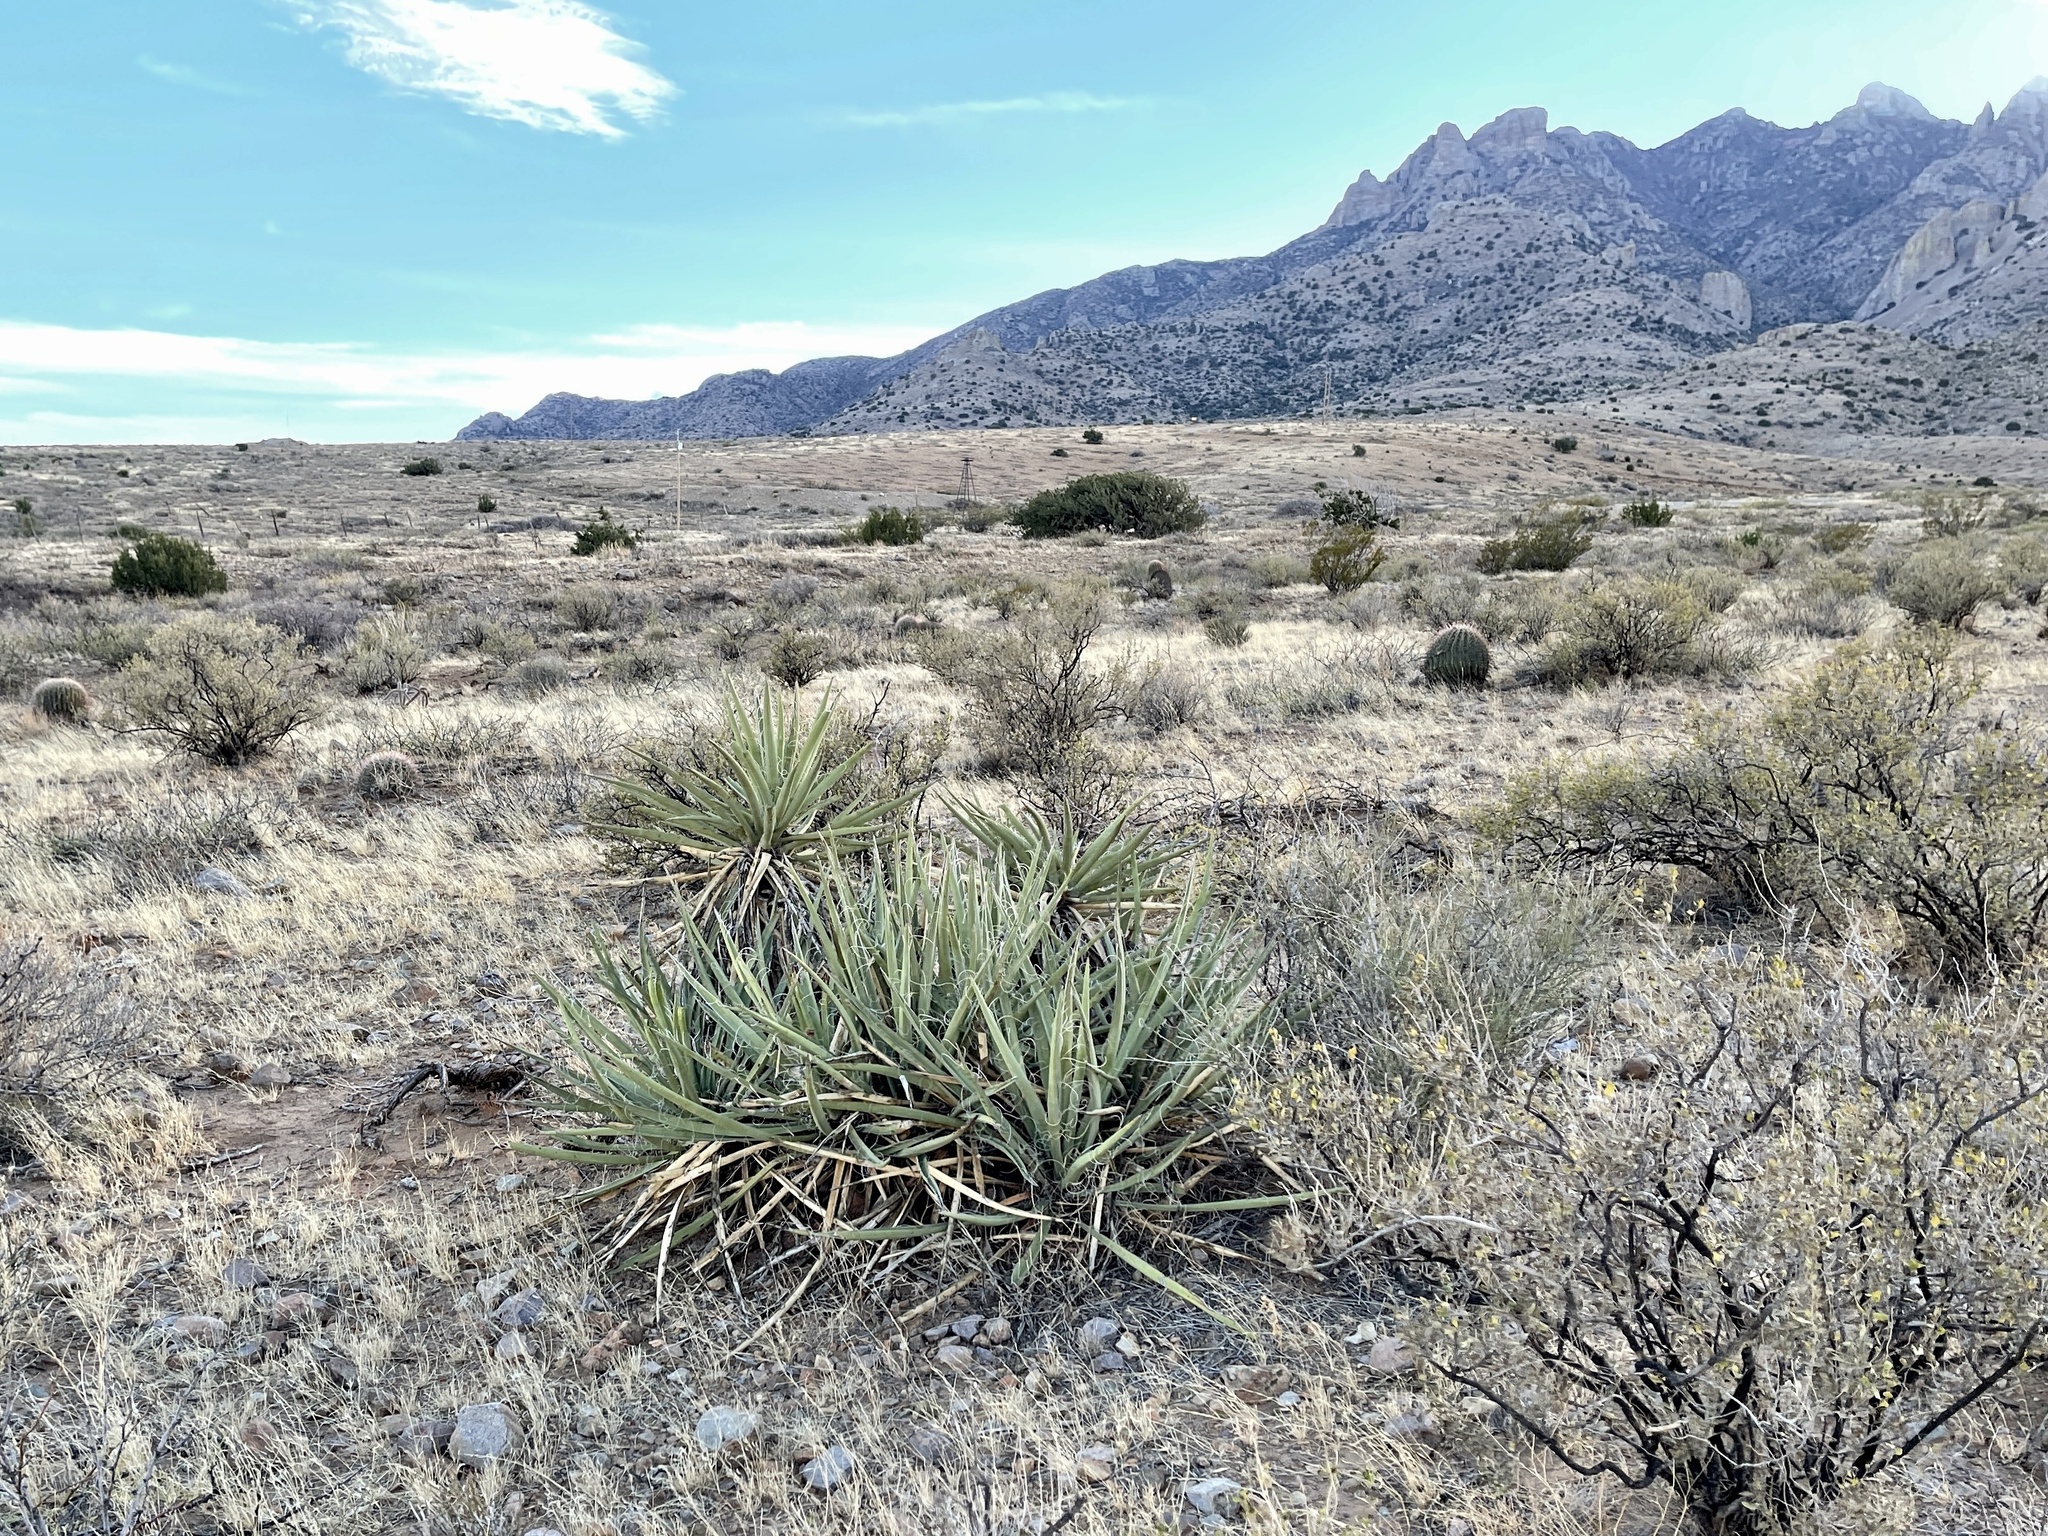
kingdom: Plantae
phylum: Tracheophyta
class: Liliopsida
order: Asparagales
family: Asparagaceae
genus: Yucca
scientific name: Yucca baccata
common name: Banana yucca
